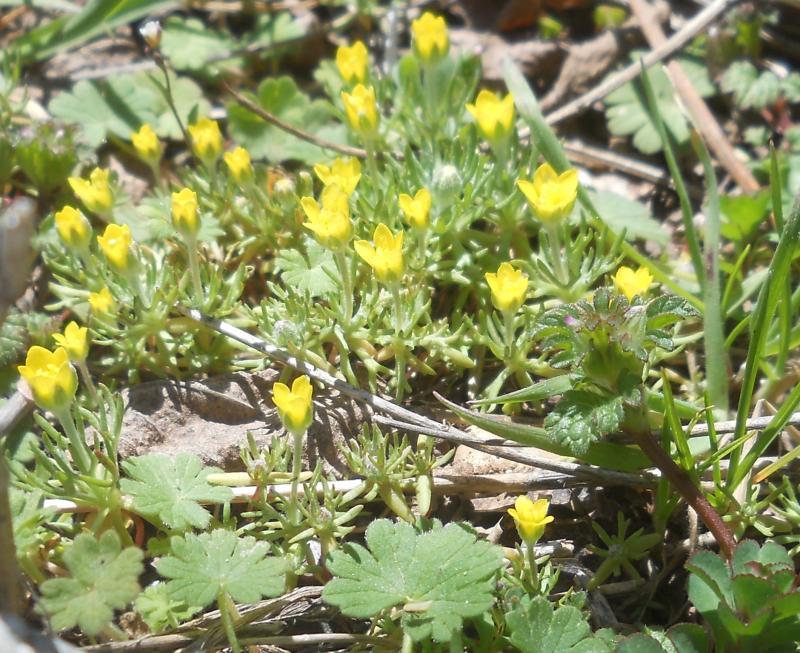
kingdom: Plantae
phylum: Tracheophyta
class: Magnoliopsida
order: Ranunculales
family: Ranunculaceae
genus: Ceratocephala
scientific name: Ceratocephala falcata
